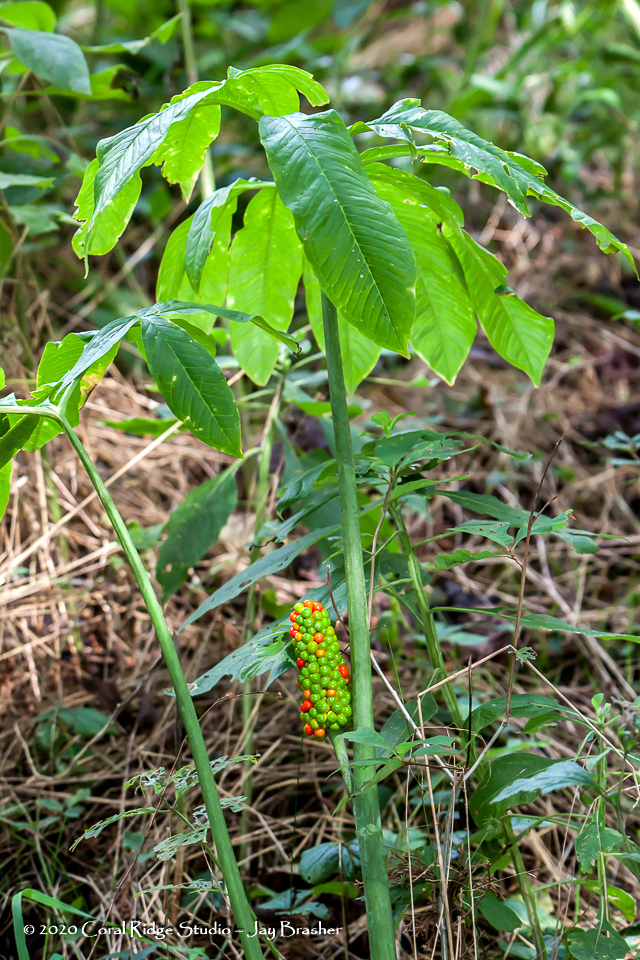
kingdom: Plantae
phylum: Tracheophyta
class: Liliopsida
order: Alismatales
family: Araceae
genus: Arisaema
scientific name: Arisaema dracontium
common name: Dragon-arum
